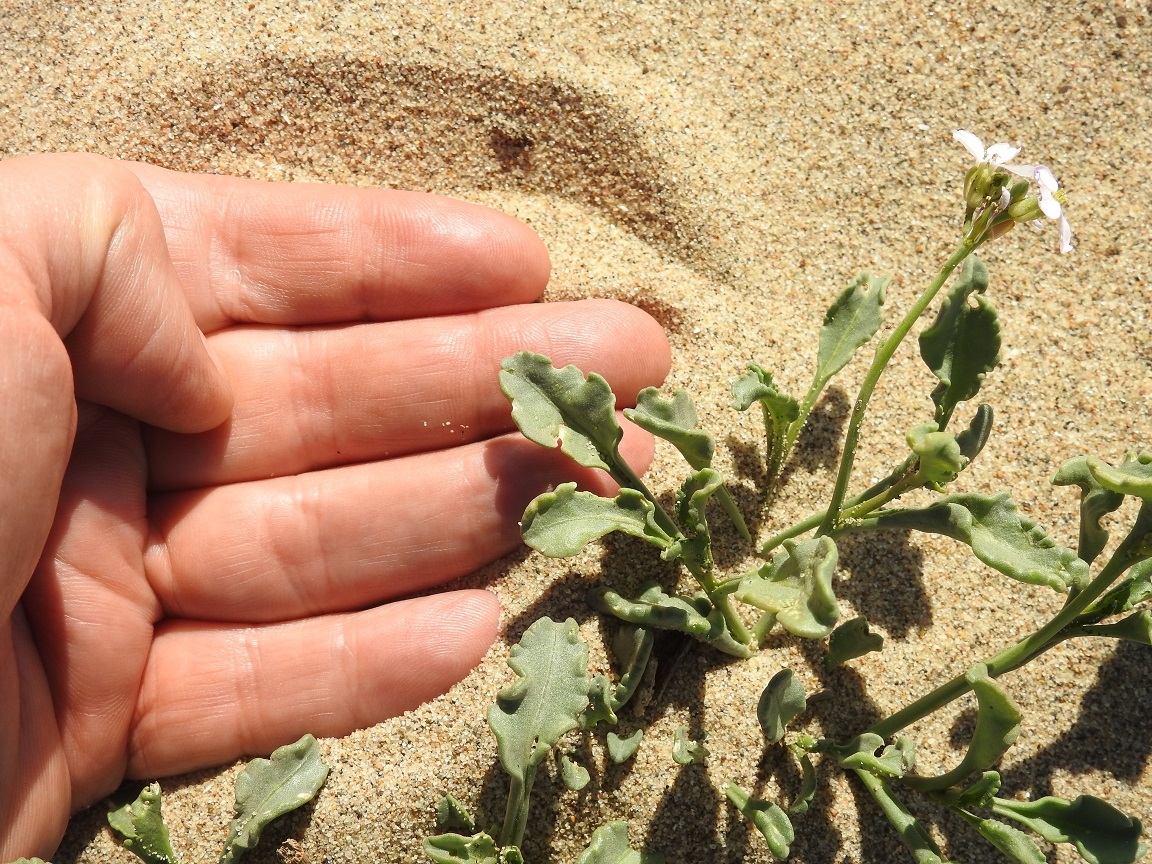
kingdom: Plantae
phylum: Tracheophyta
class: Magnoliopsida
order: Brassicales
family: Brassicaceae
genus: Cakile
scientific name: Cakile maritima
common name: Sea rocket
